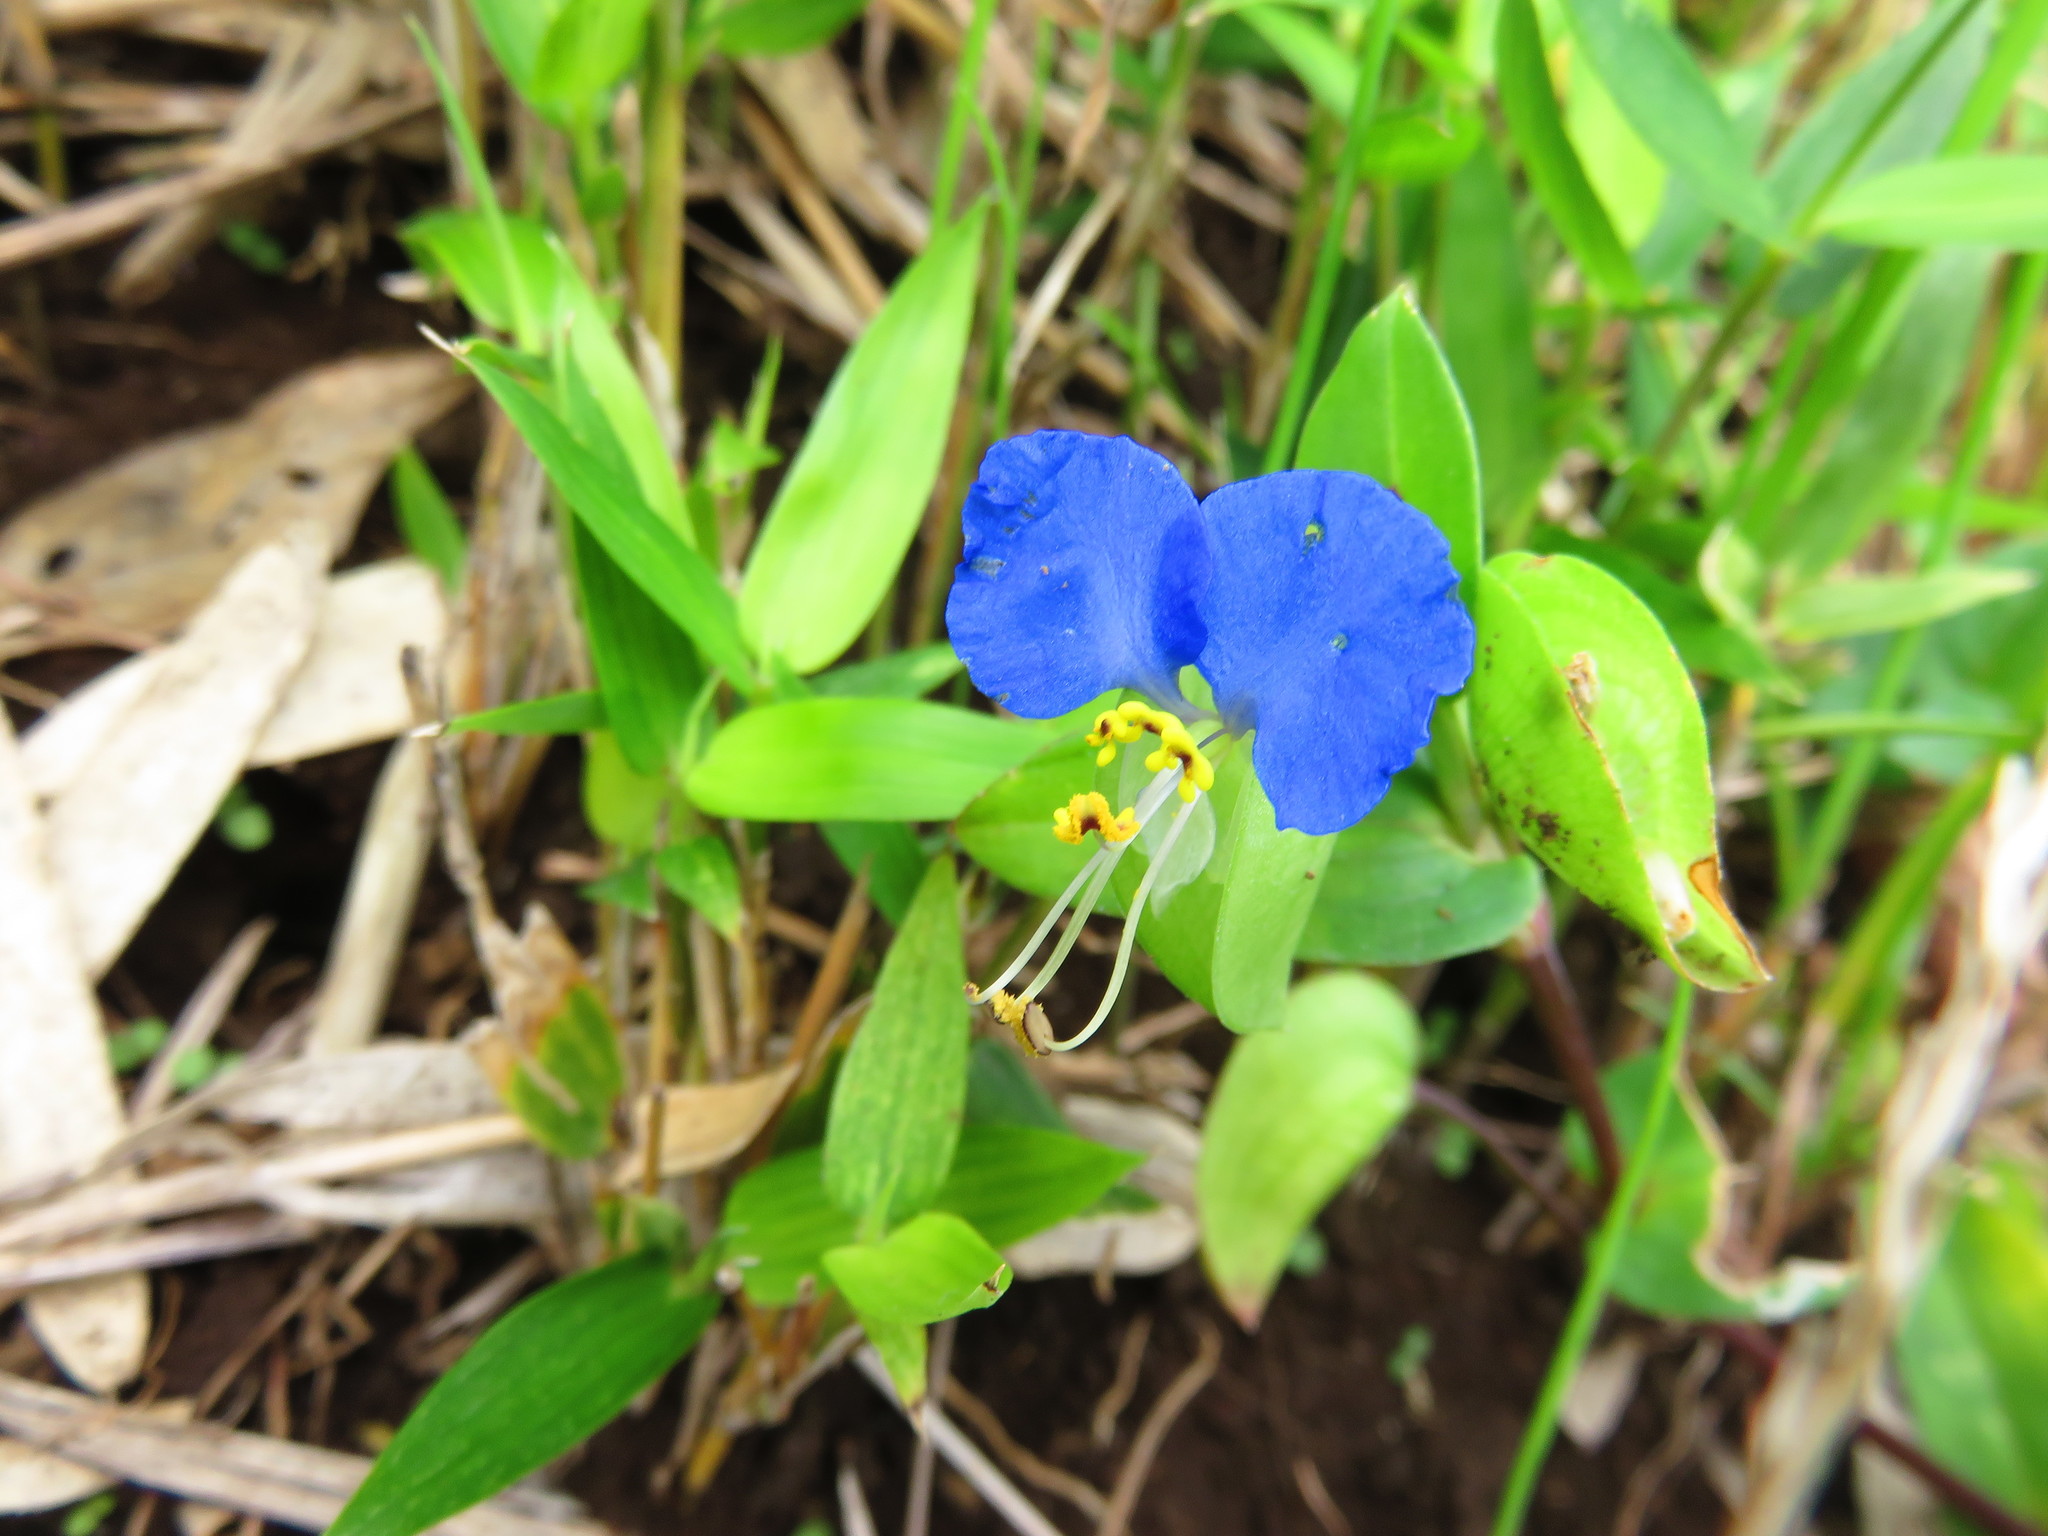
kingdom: Plantae
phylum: Tracheophyta
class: Liliopsida
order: Commelinales
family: Commelinaceae
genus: Commelina
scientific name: Commelina communis
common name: Asiatic dayflower
